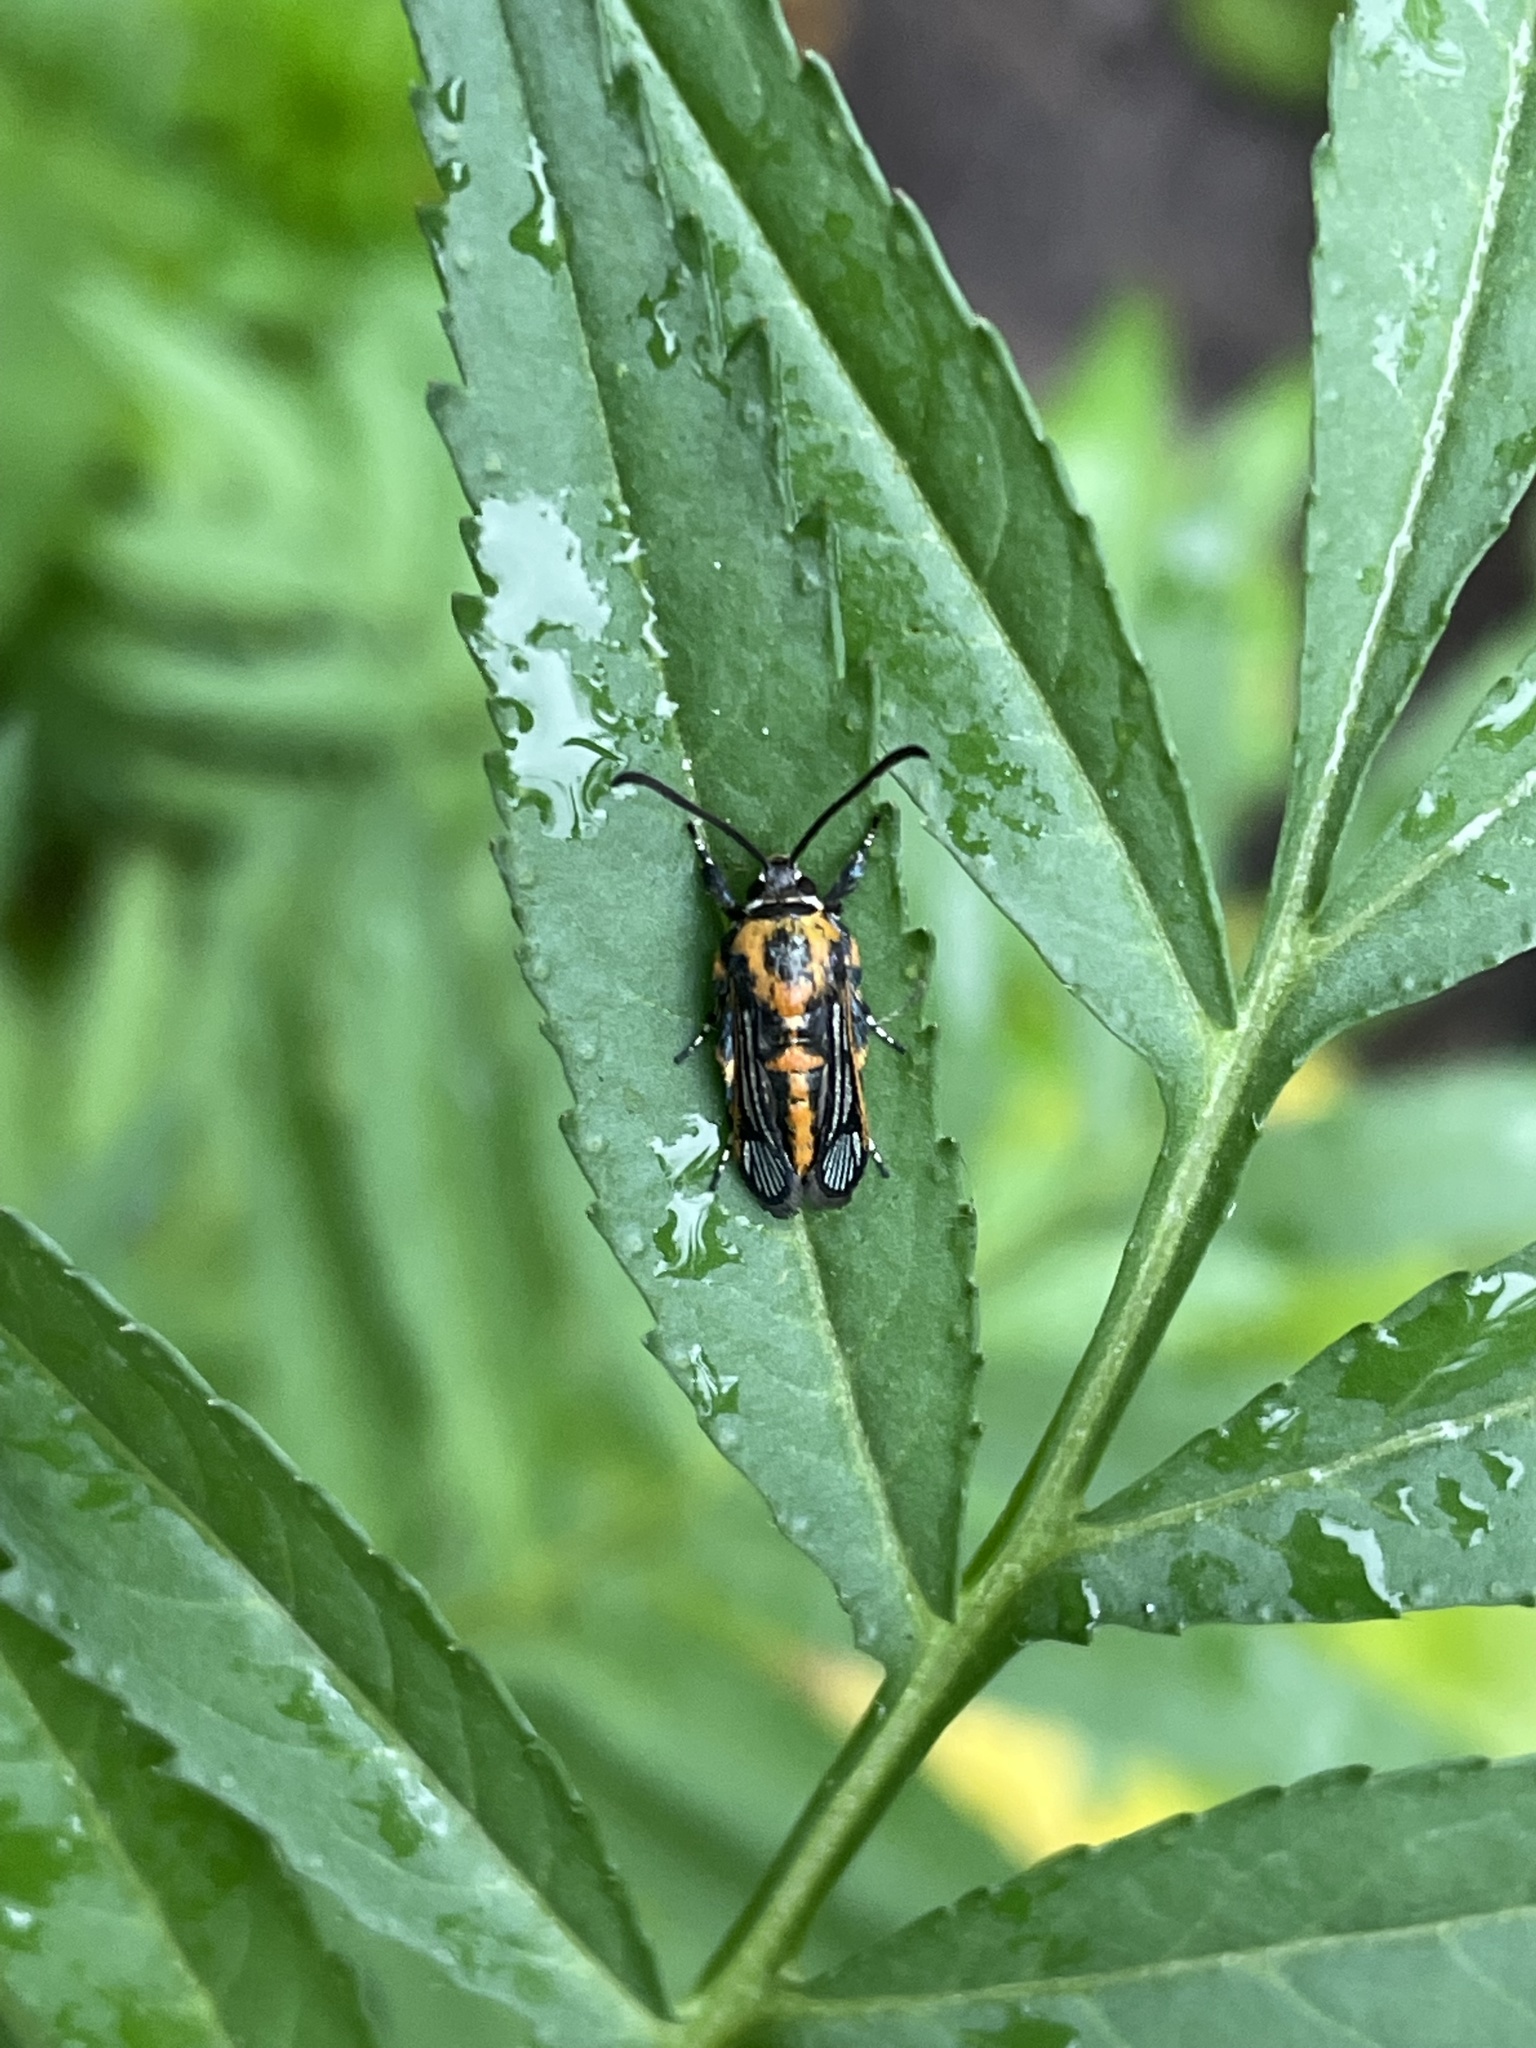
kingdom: Animalia
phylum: Arthropoda
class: Insecta
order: Lepidoptera
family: Sesiidae
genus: Homogyna
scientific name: Homogyna xanthomelaena
